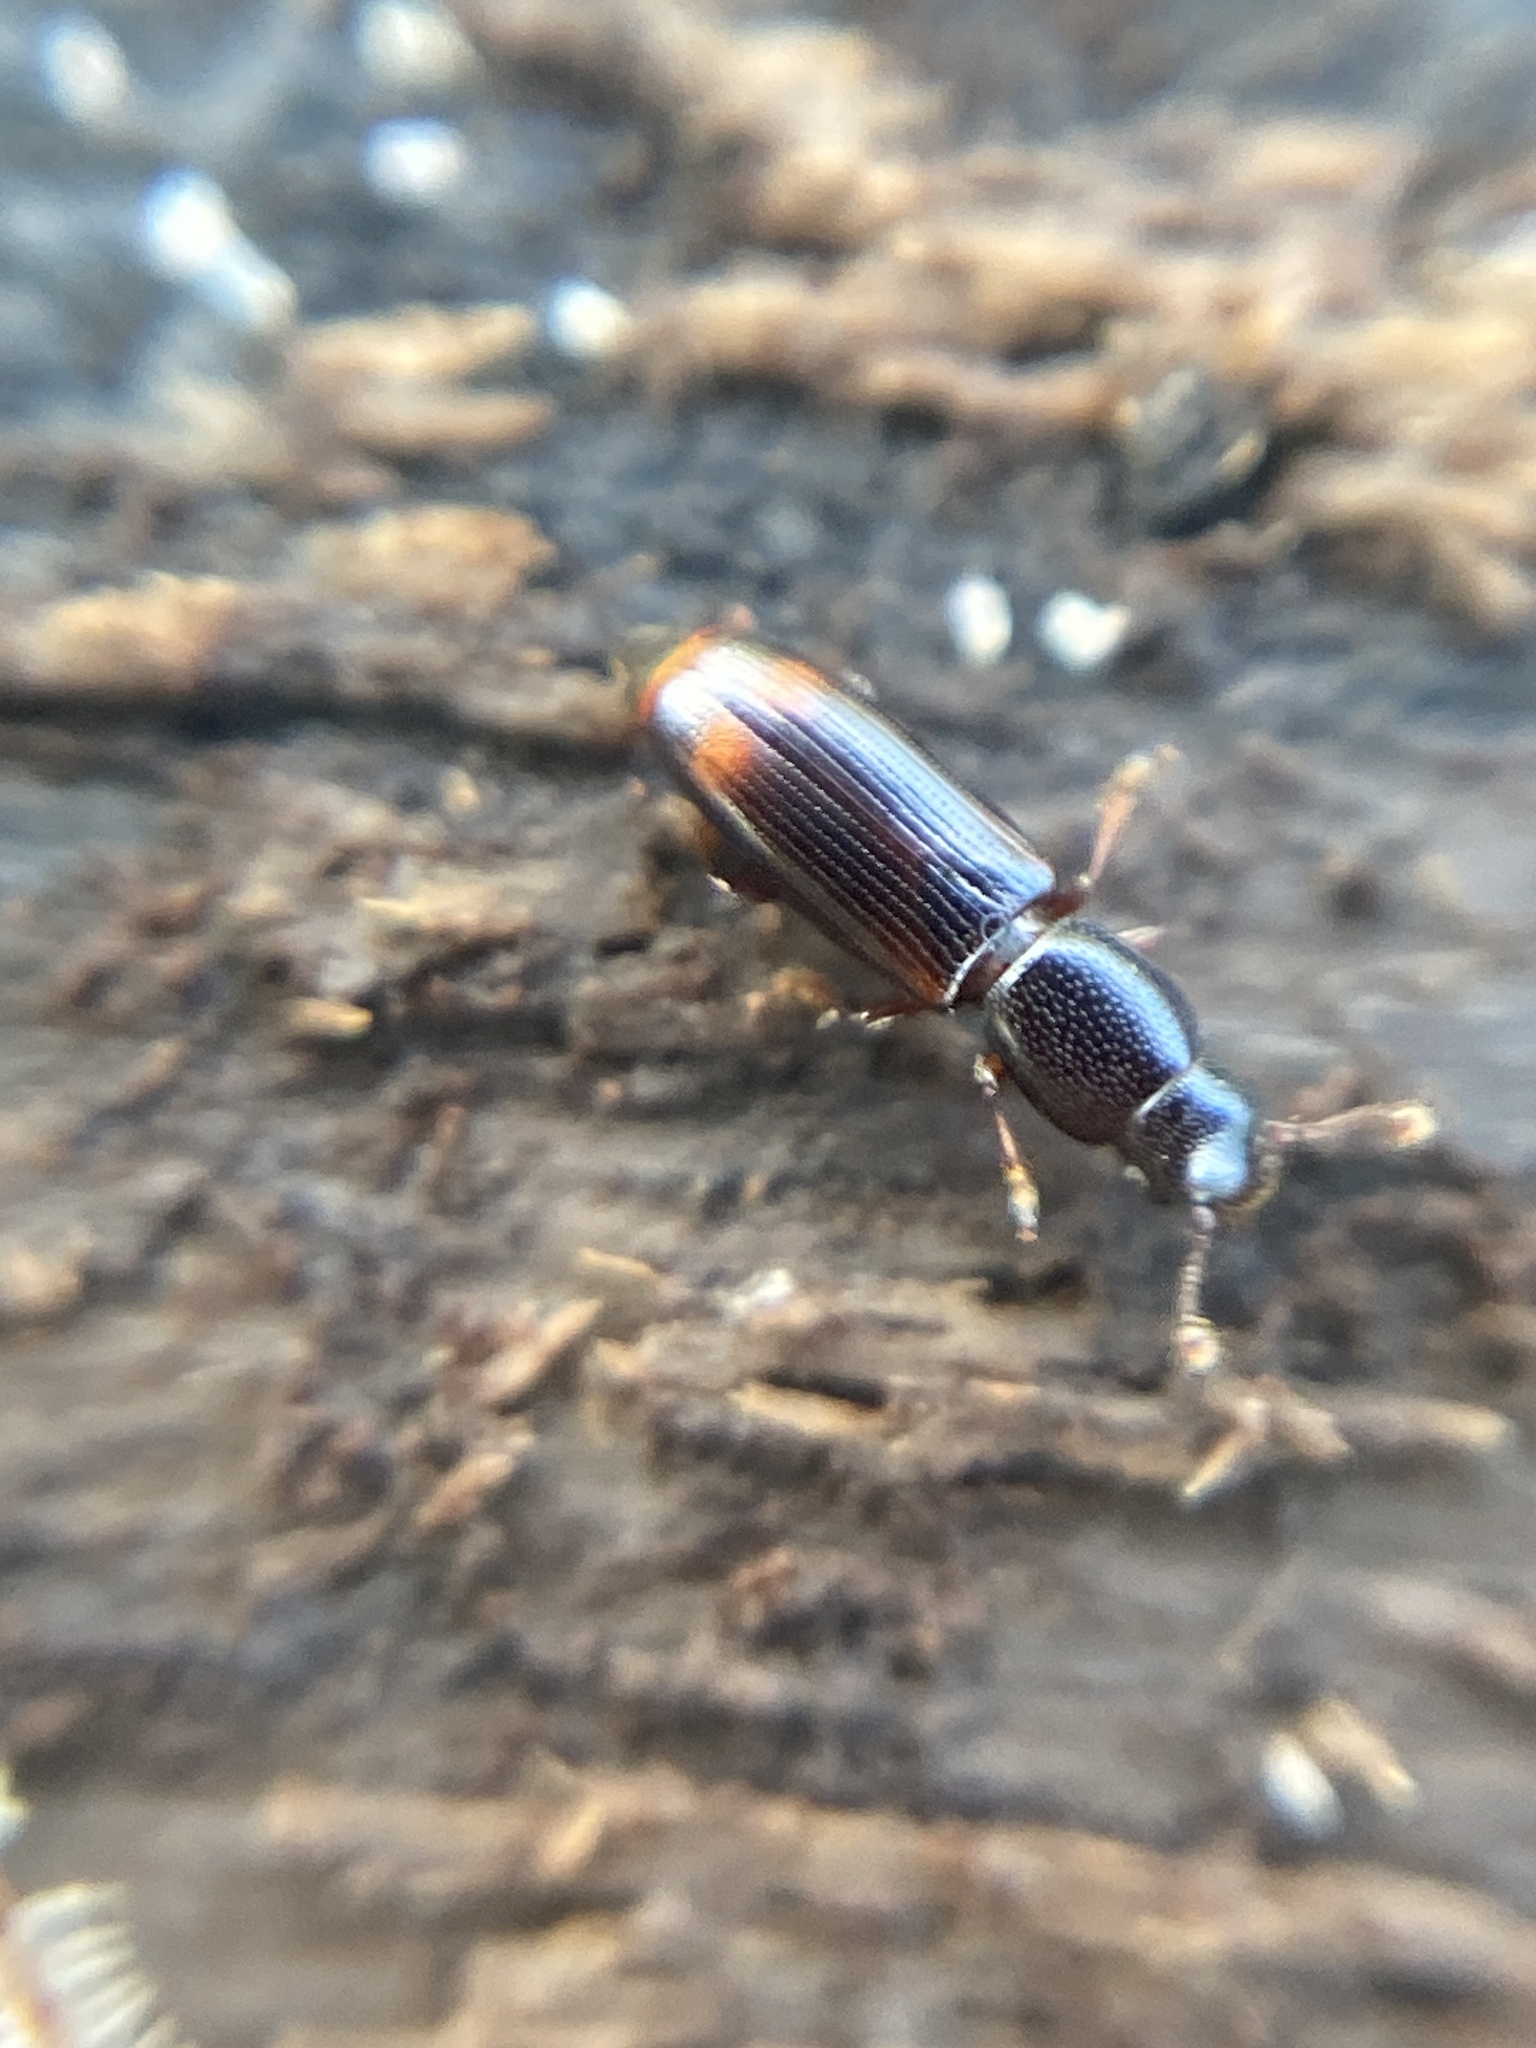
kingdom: Animalia
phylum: Arthropoda
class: Insecta
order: Coleoptera
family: Monotomidae
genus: Rhizophagus
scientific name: Rhizophagus bipustulatus
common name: Root-eating beetle
